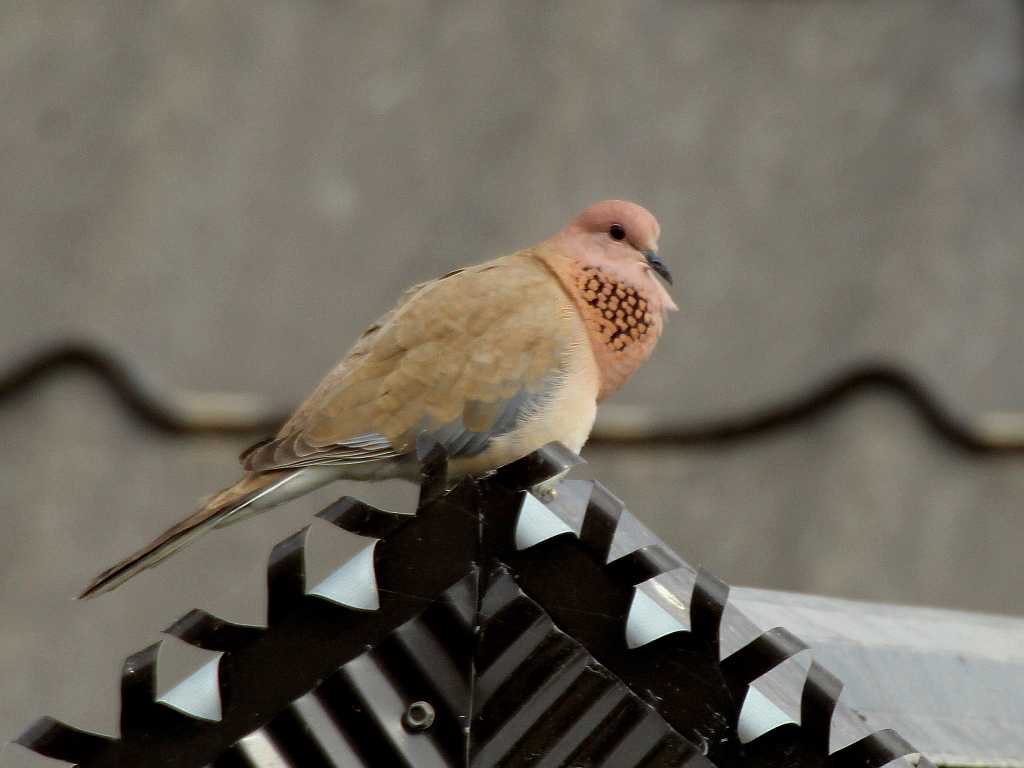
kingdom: Animalia
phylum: Chordata
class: Aves
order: Columbiformes
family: Columbidae
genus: Spilopelia
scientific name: Spilopelia senegalensis
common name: Laughing dove
